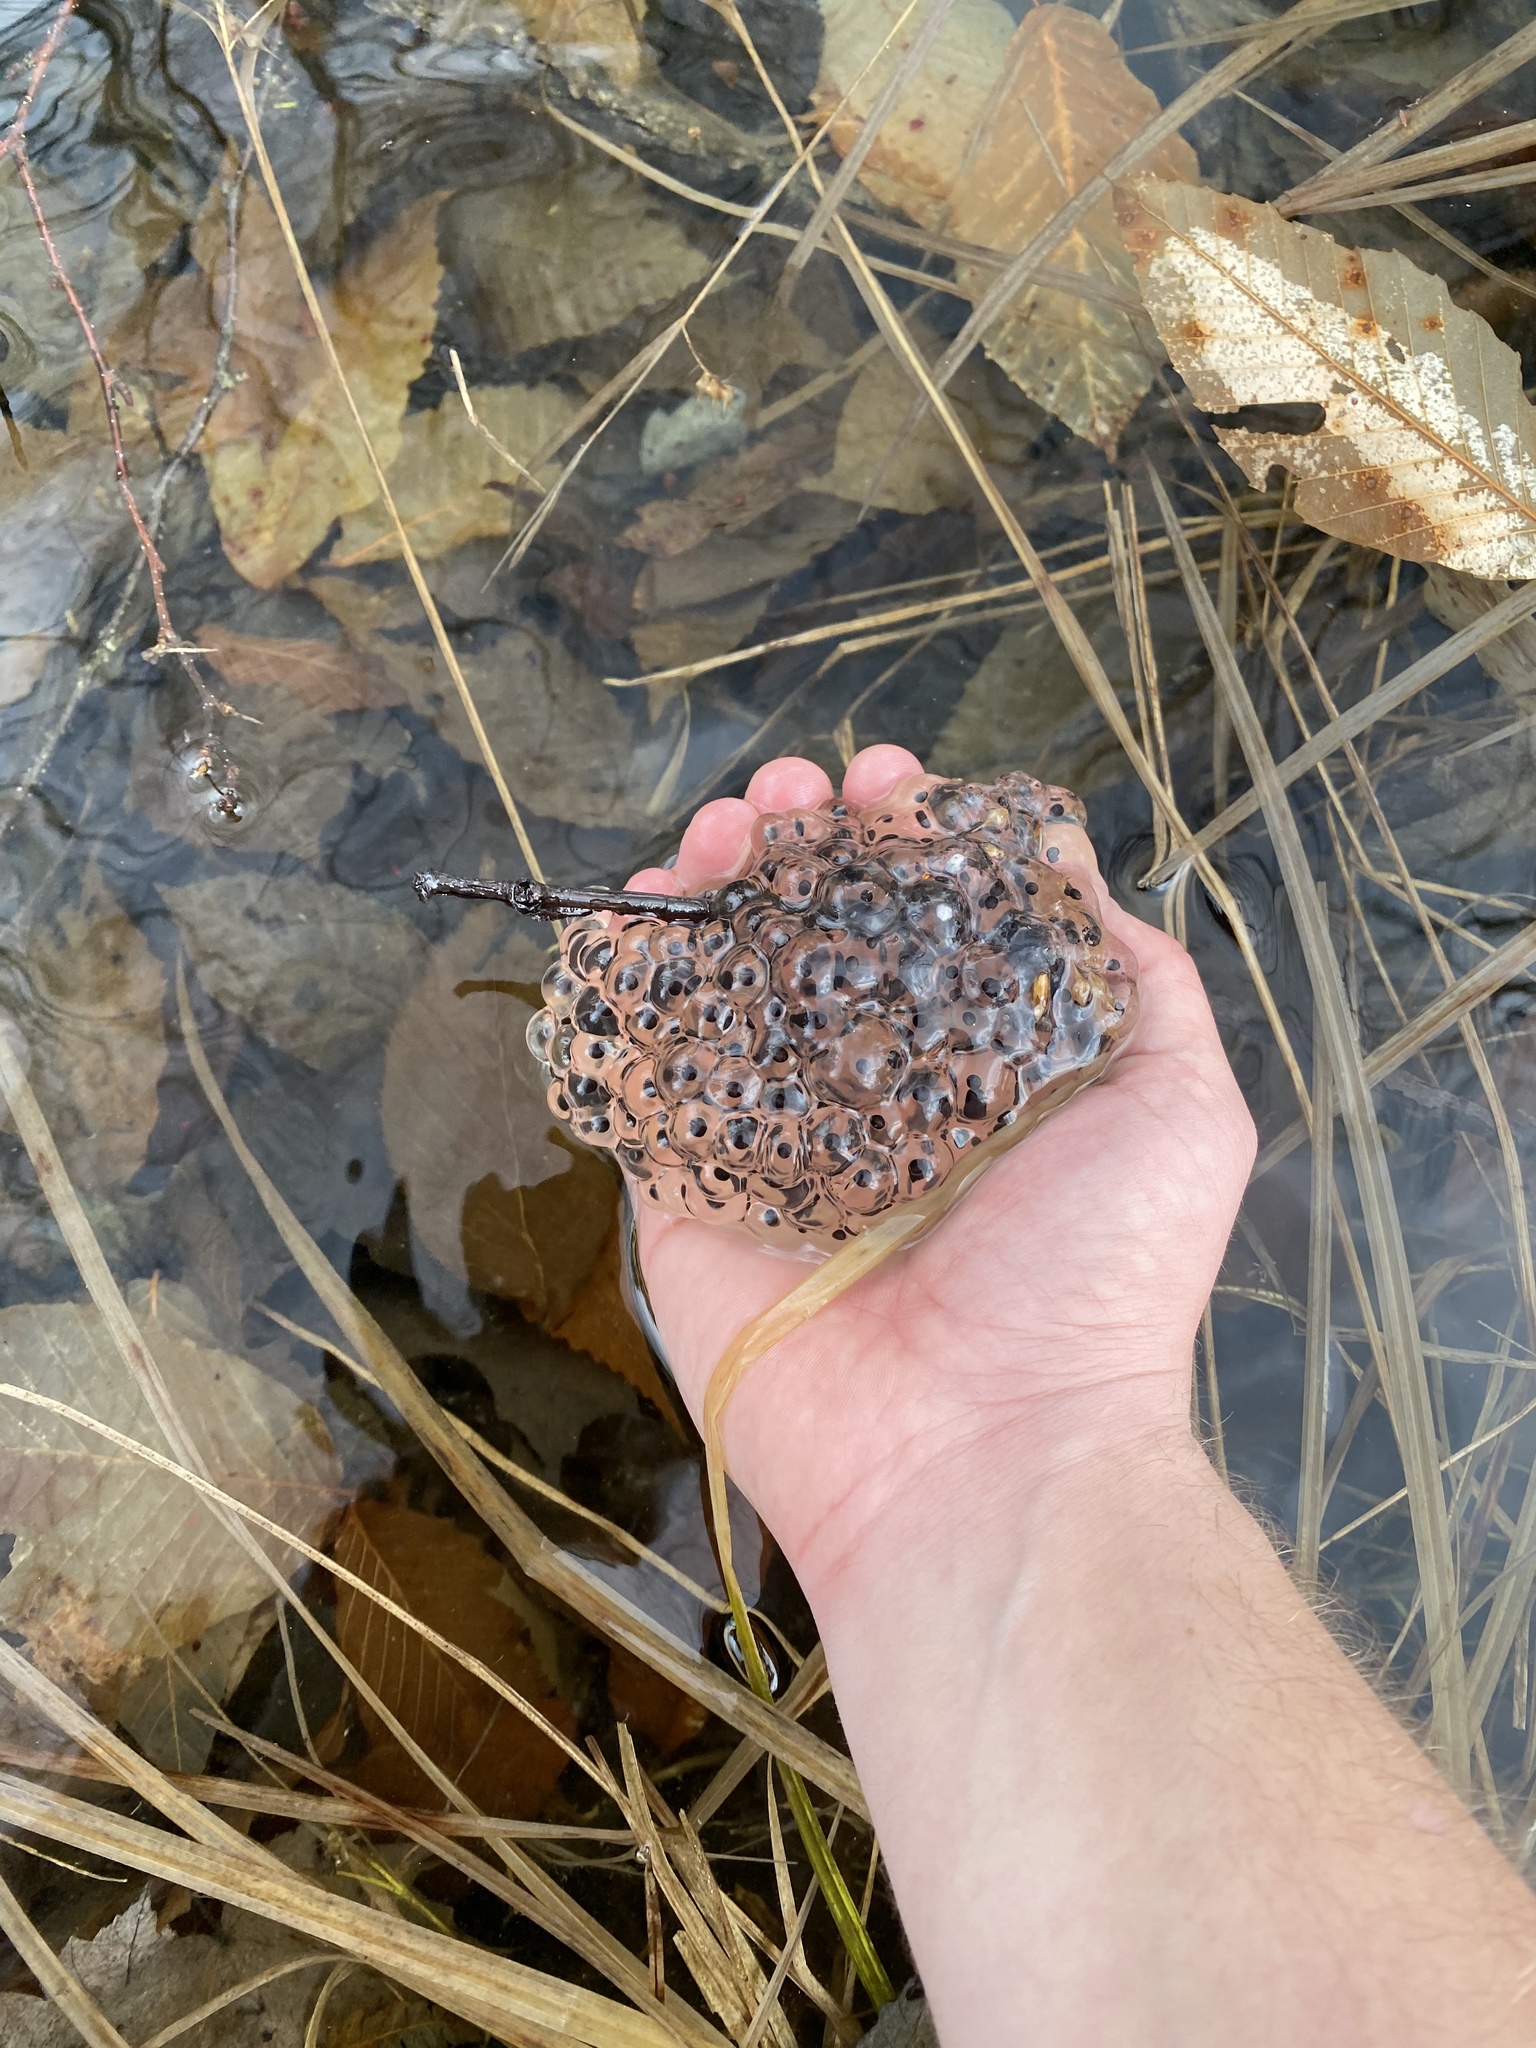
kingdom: Animalia
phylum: Chordata
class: Amphibia
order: Anura
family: Ranidae
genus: Lithobates
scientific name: Lithobates sylvaticus
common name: Wood frog
